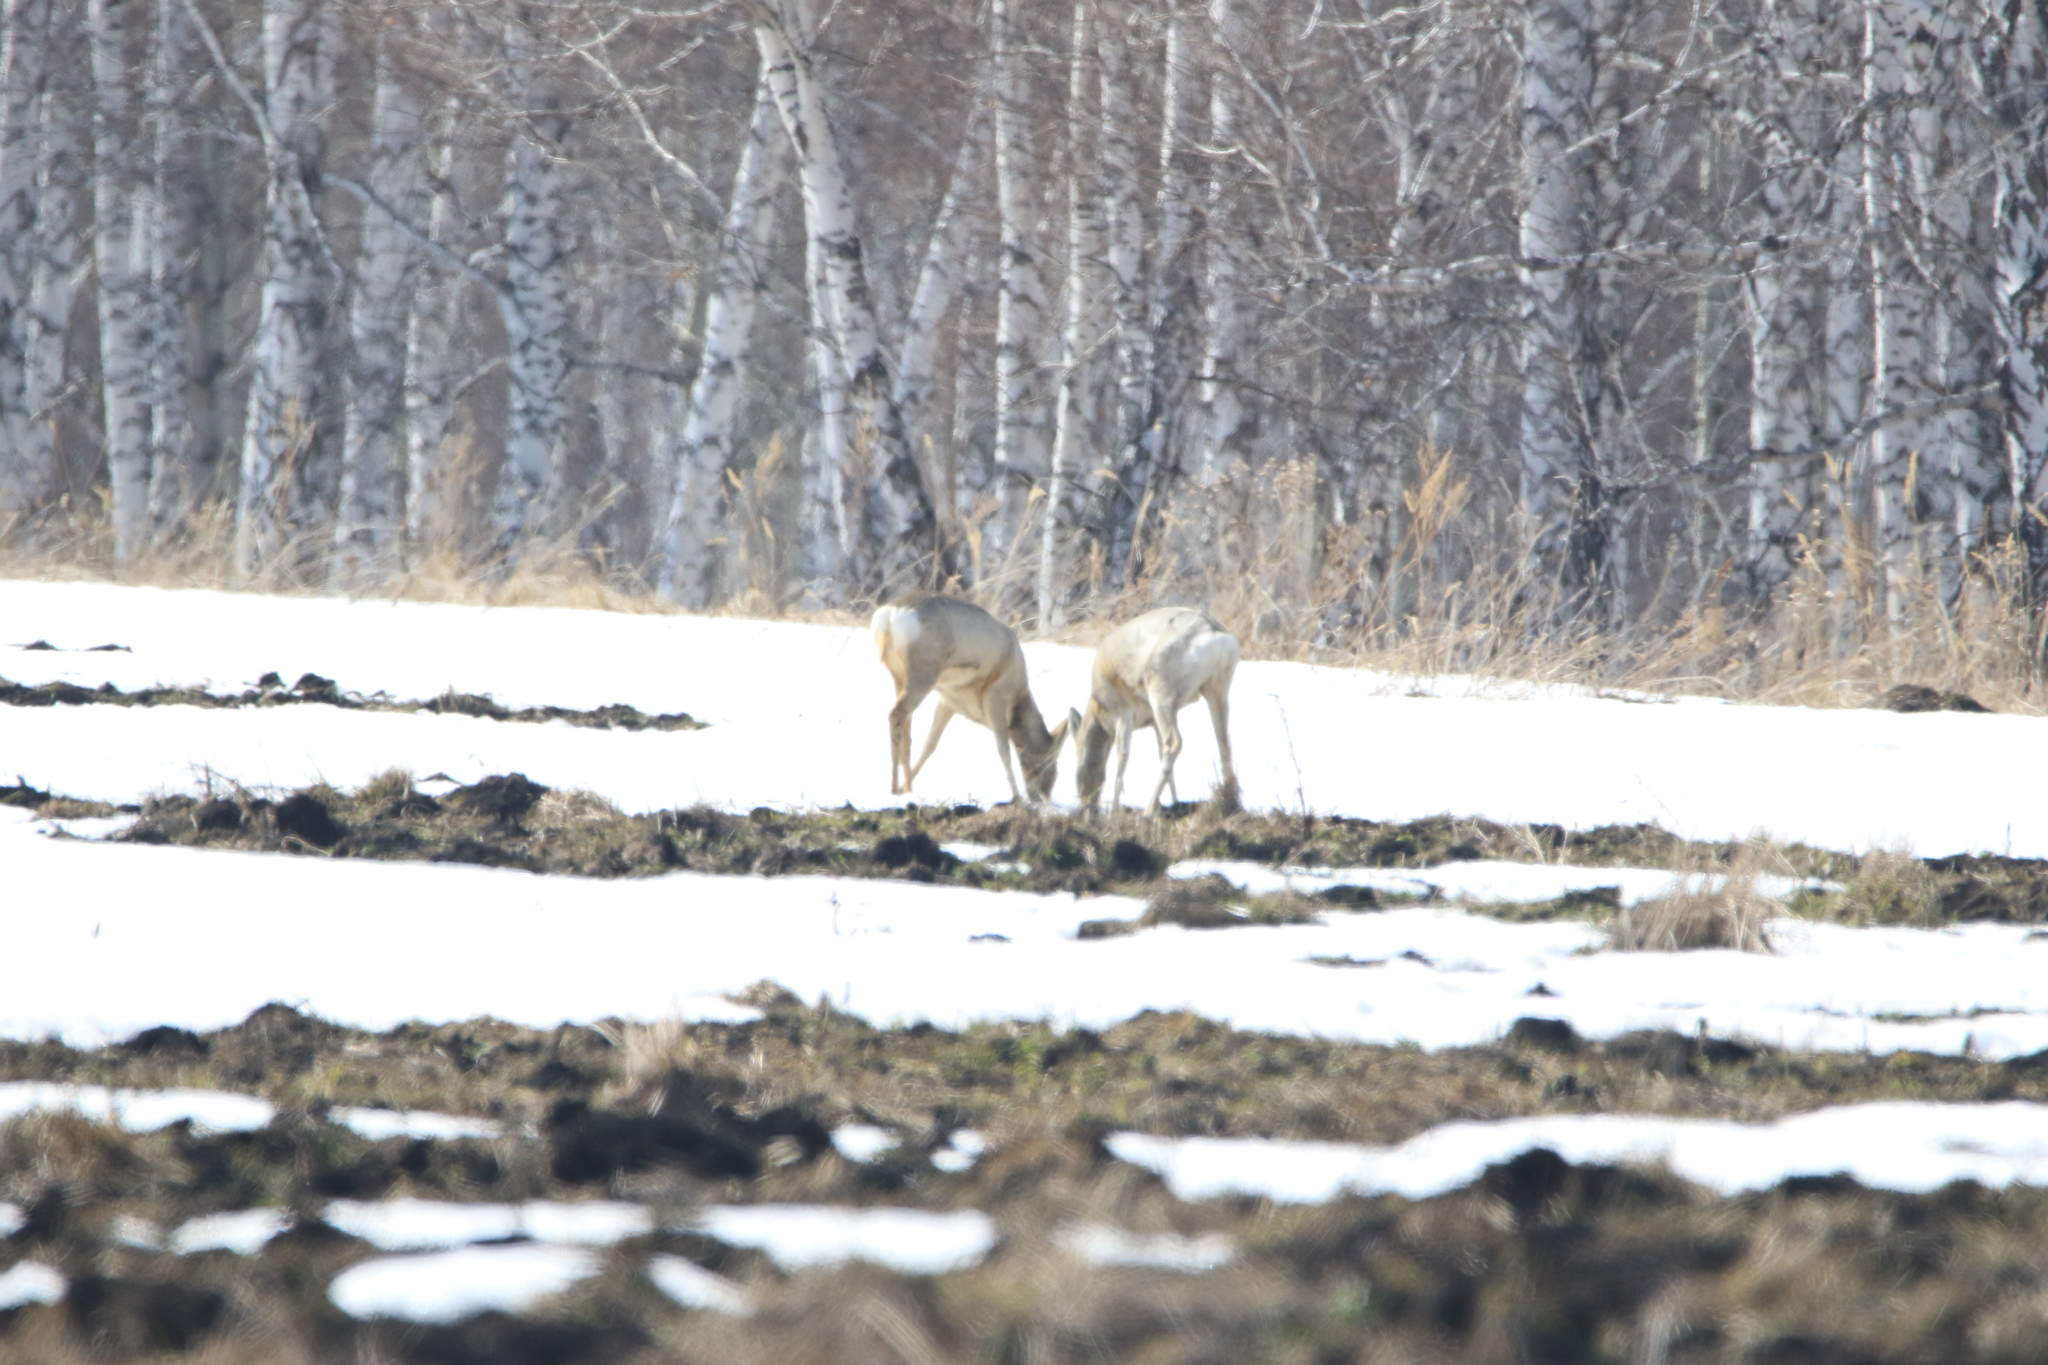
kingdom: Animalia
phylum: Chordata
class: Mammalia
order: Artiodactyla
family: Cervidae
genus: Capreolus
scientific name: Capreolus pygargus
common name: Siberian roe
